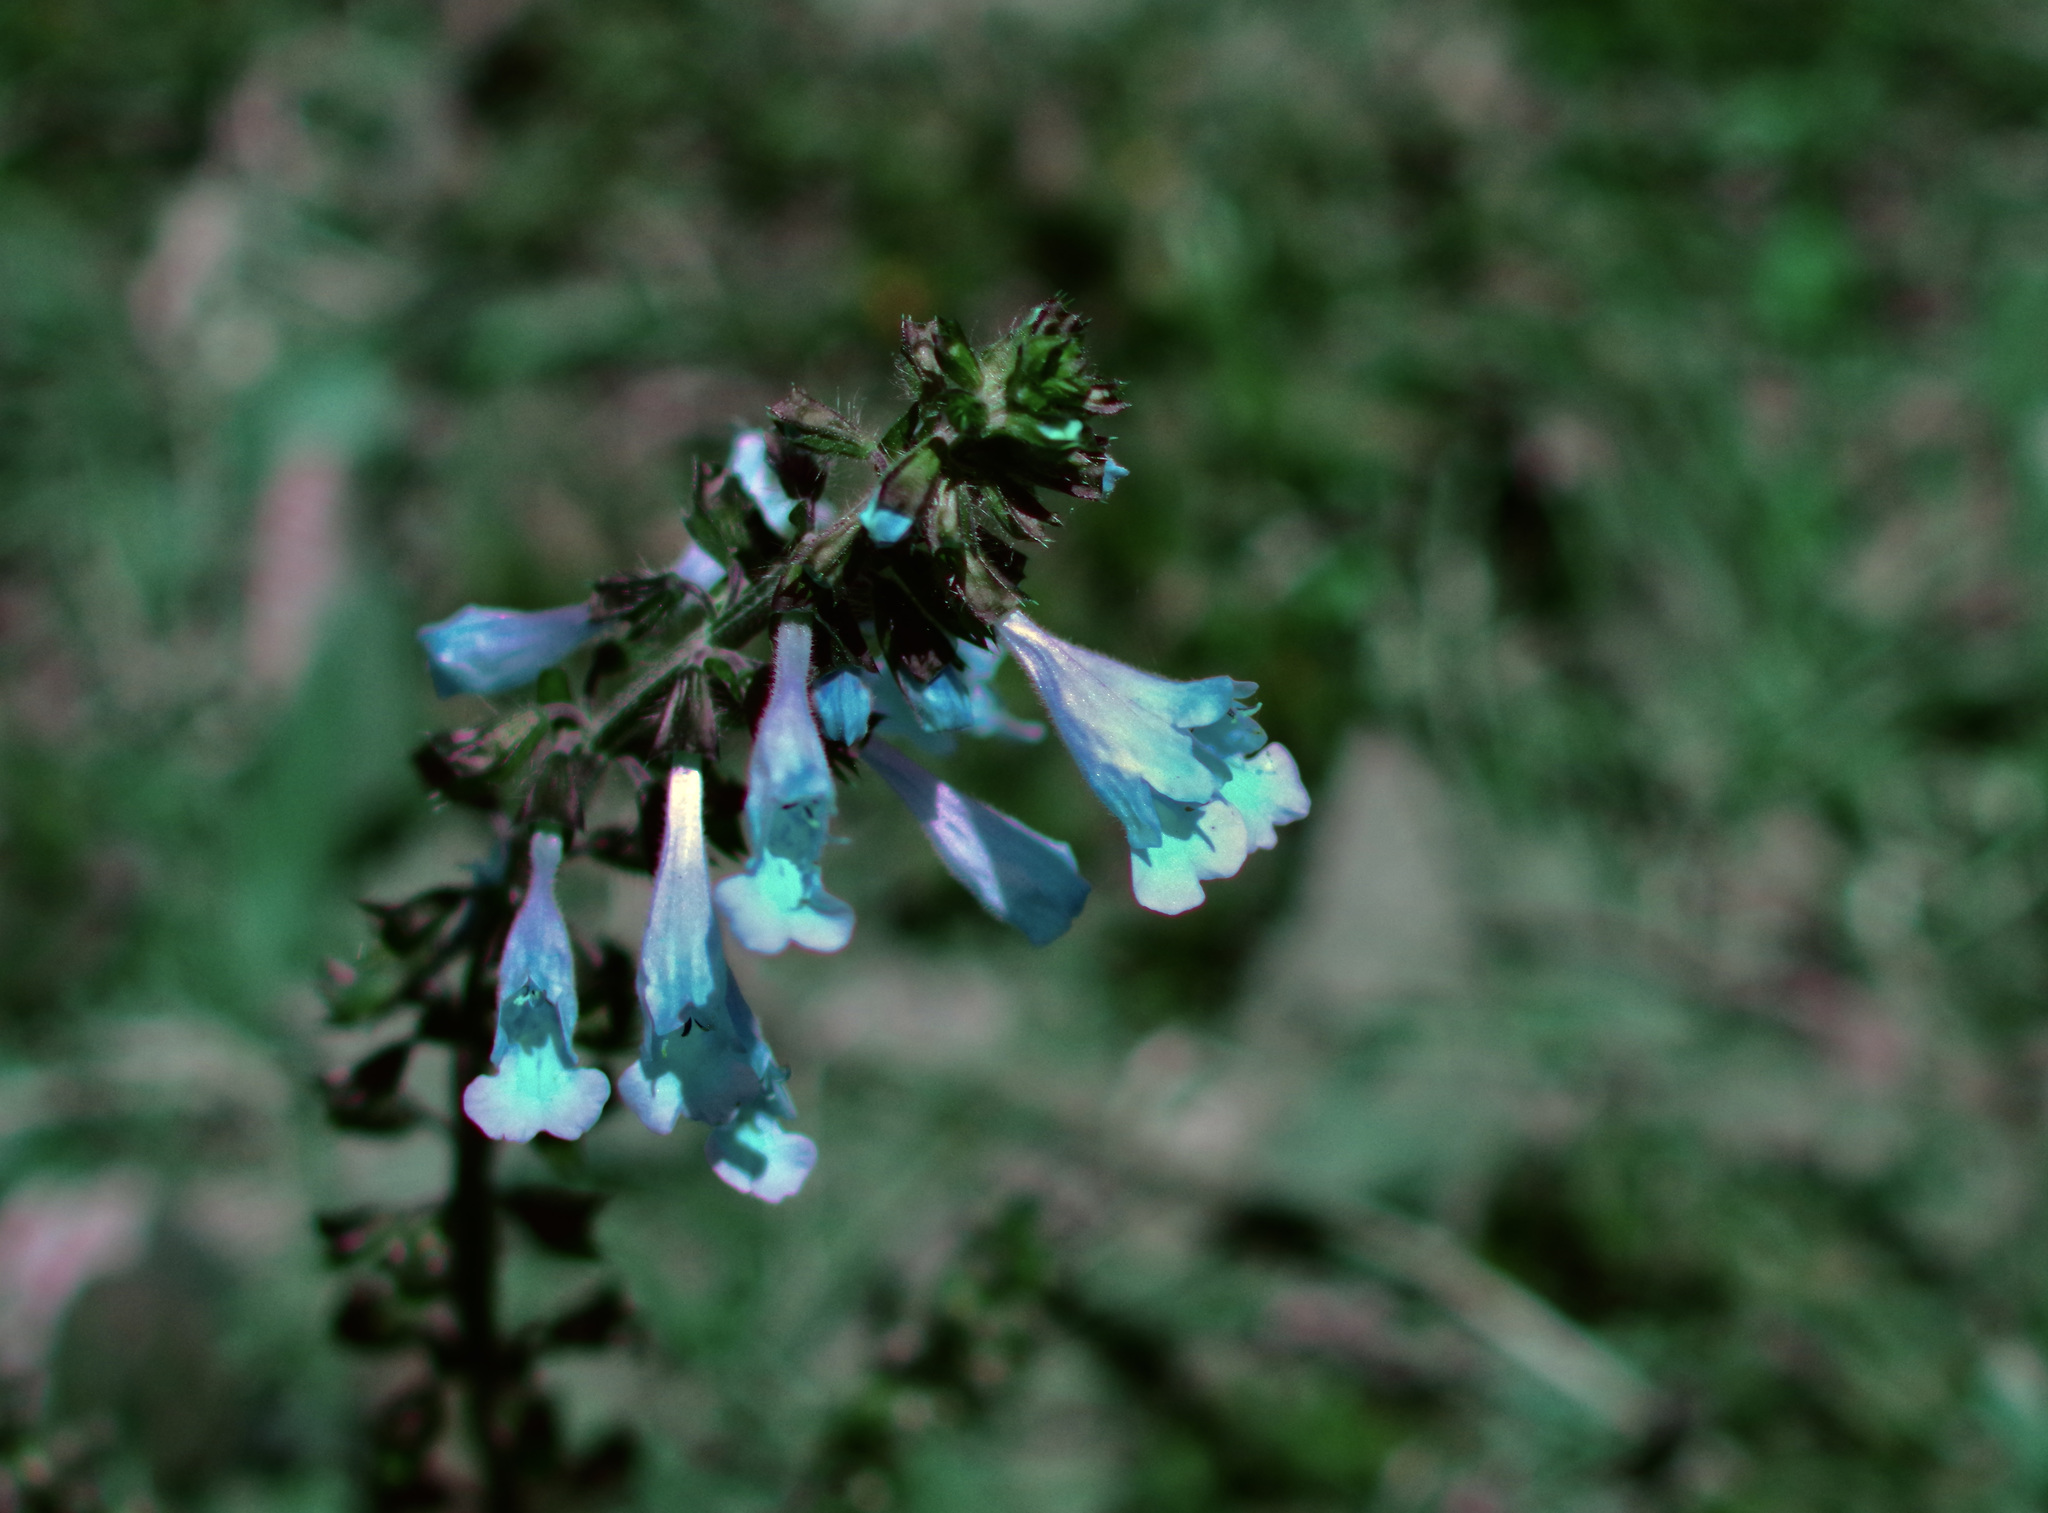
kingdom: Plantae
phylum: Tracheophyta
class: Magnoliopsida
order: Lamiales
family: Lamiaceae
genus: Salvia
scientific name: Salvia lyrata
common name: Cancerweed
